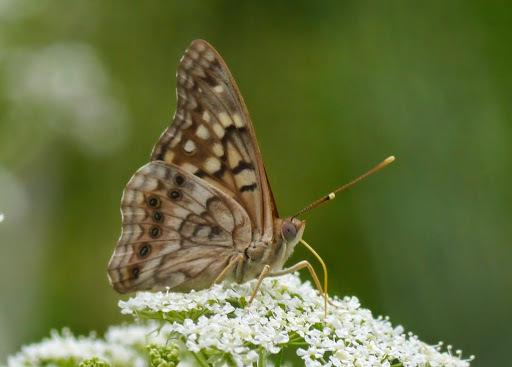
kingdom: Animalia
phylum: Arthropoda
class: Insecta
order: Lepidoptera
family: Nymphalidae
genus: Asterocampa
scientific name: Asterocampa clyton
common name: Tawny emperor
